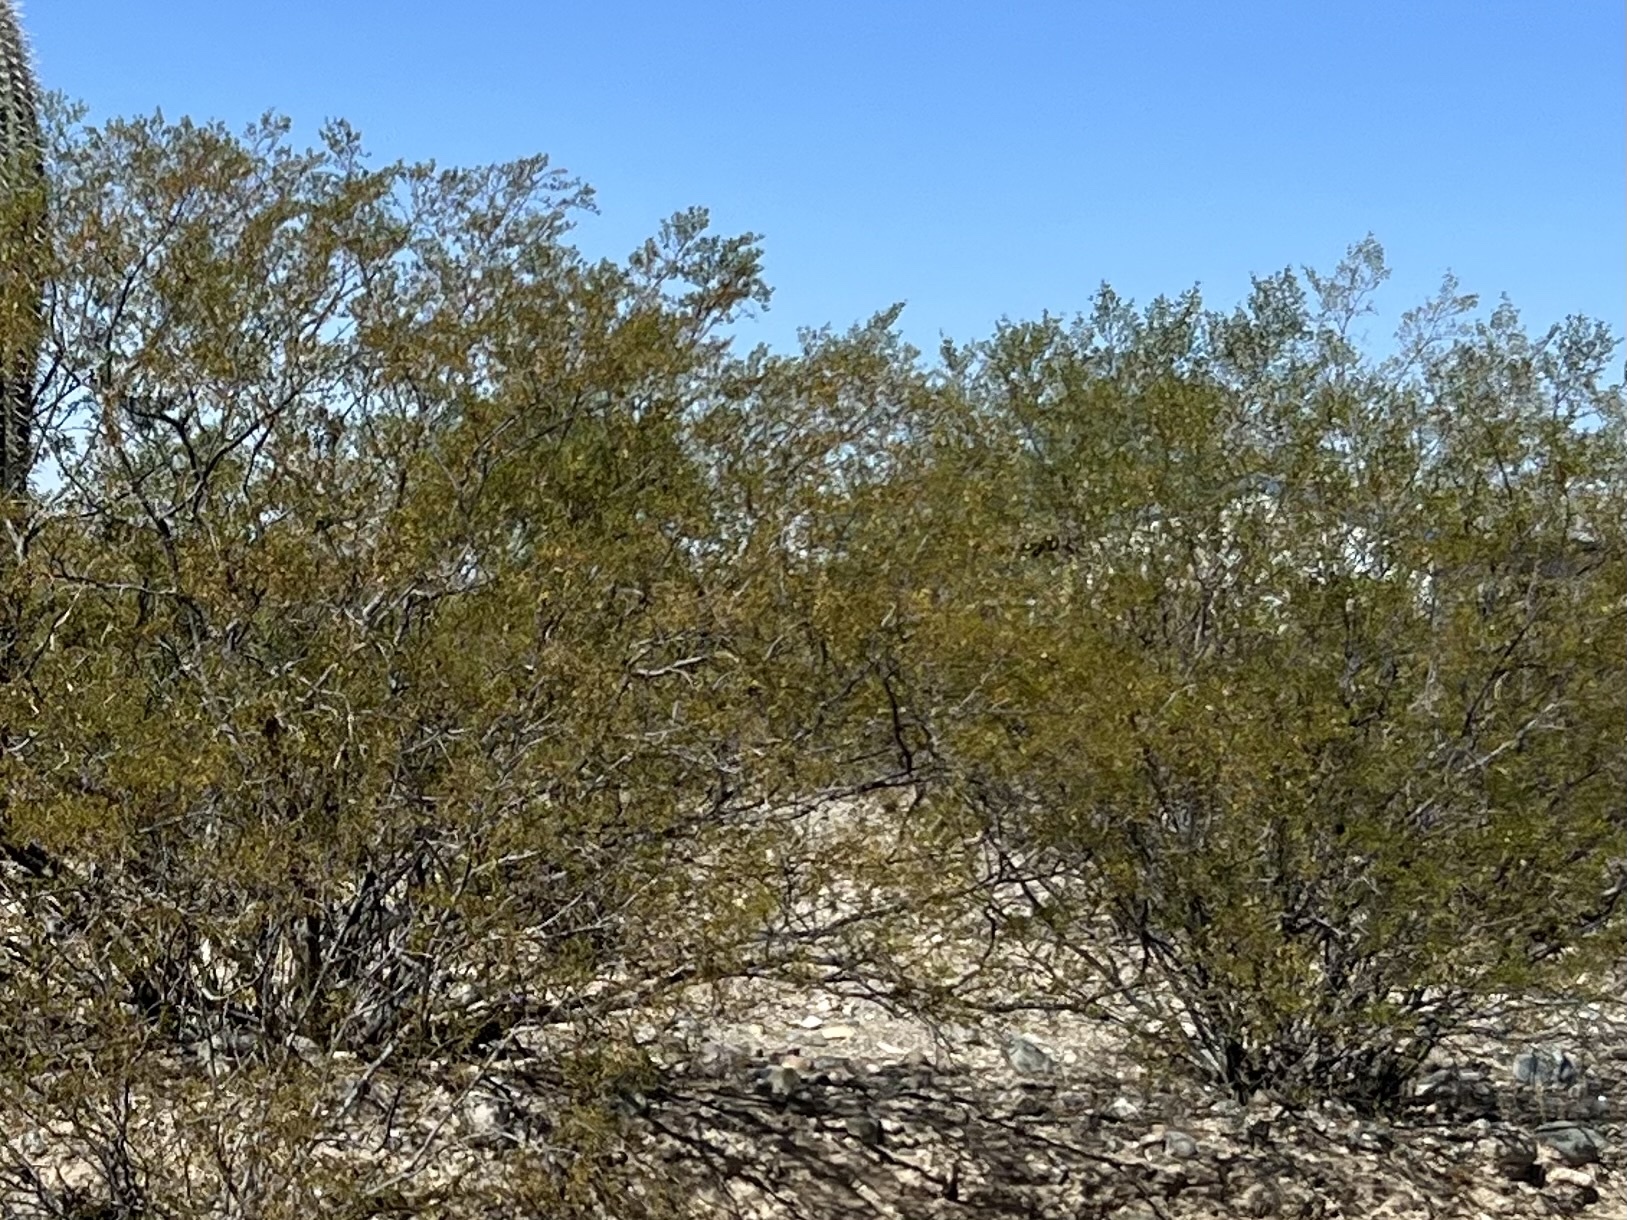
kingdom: Plantae
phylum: Tracheophyta
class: Magnoliopsida
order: Zygophyllales
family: Zygophyllaceae
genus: Larrea
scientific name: Larrea tridentata
